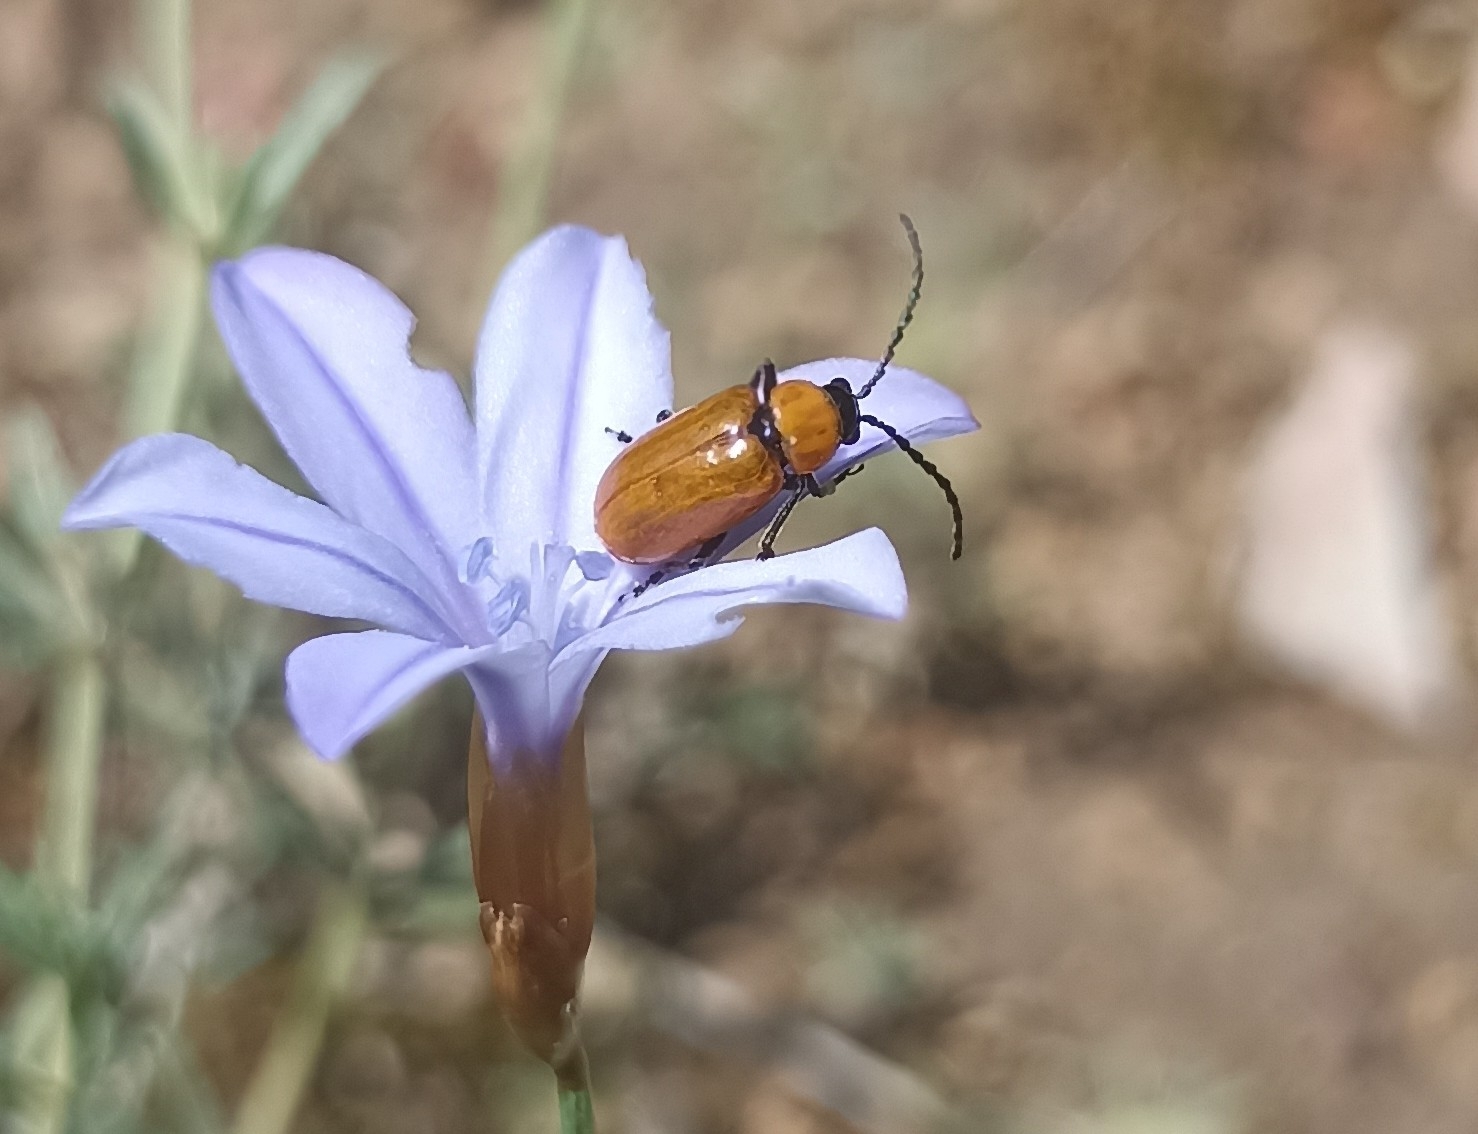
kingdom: Animalia
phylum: Arthropoda
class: Insecta
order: Coleoptera
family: Chrysomelidae
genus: Exosoma
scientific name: Exosoma lusitanicum
